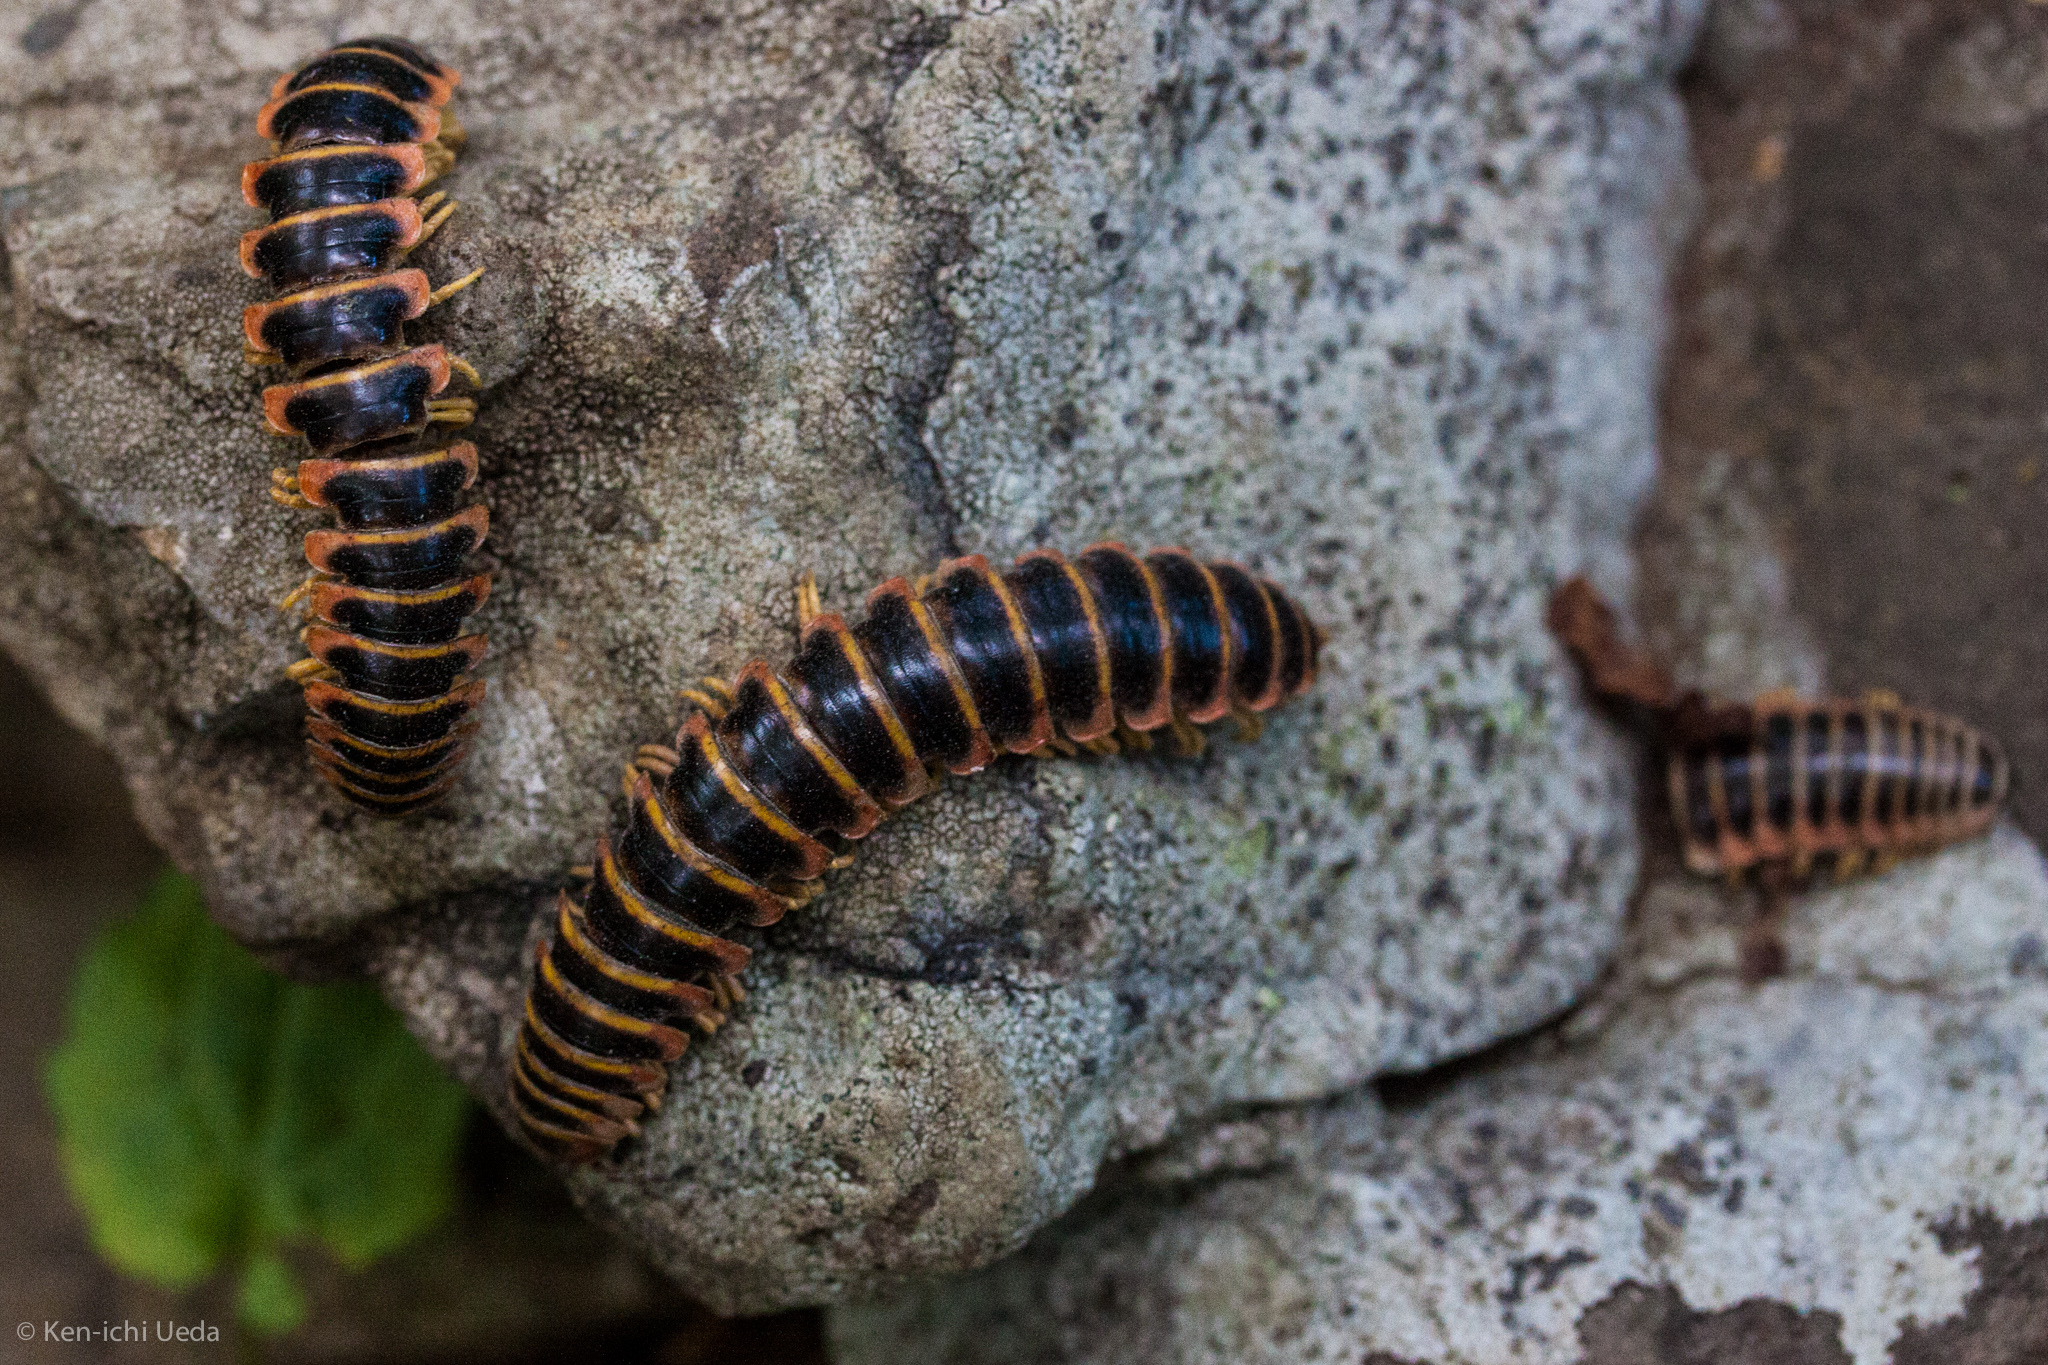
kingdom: Animalia
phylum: Arthropoda
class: Diplopoda
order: Polydesmida
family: Xystodesmidae
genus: Apheloria
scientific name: Apheloria virginiensis
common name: Black-and-gold flat millipede
